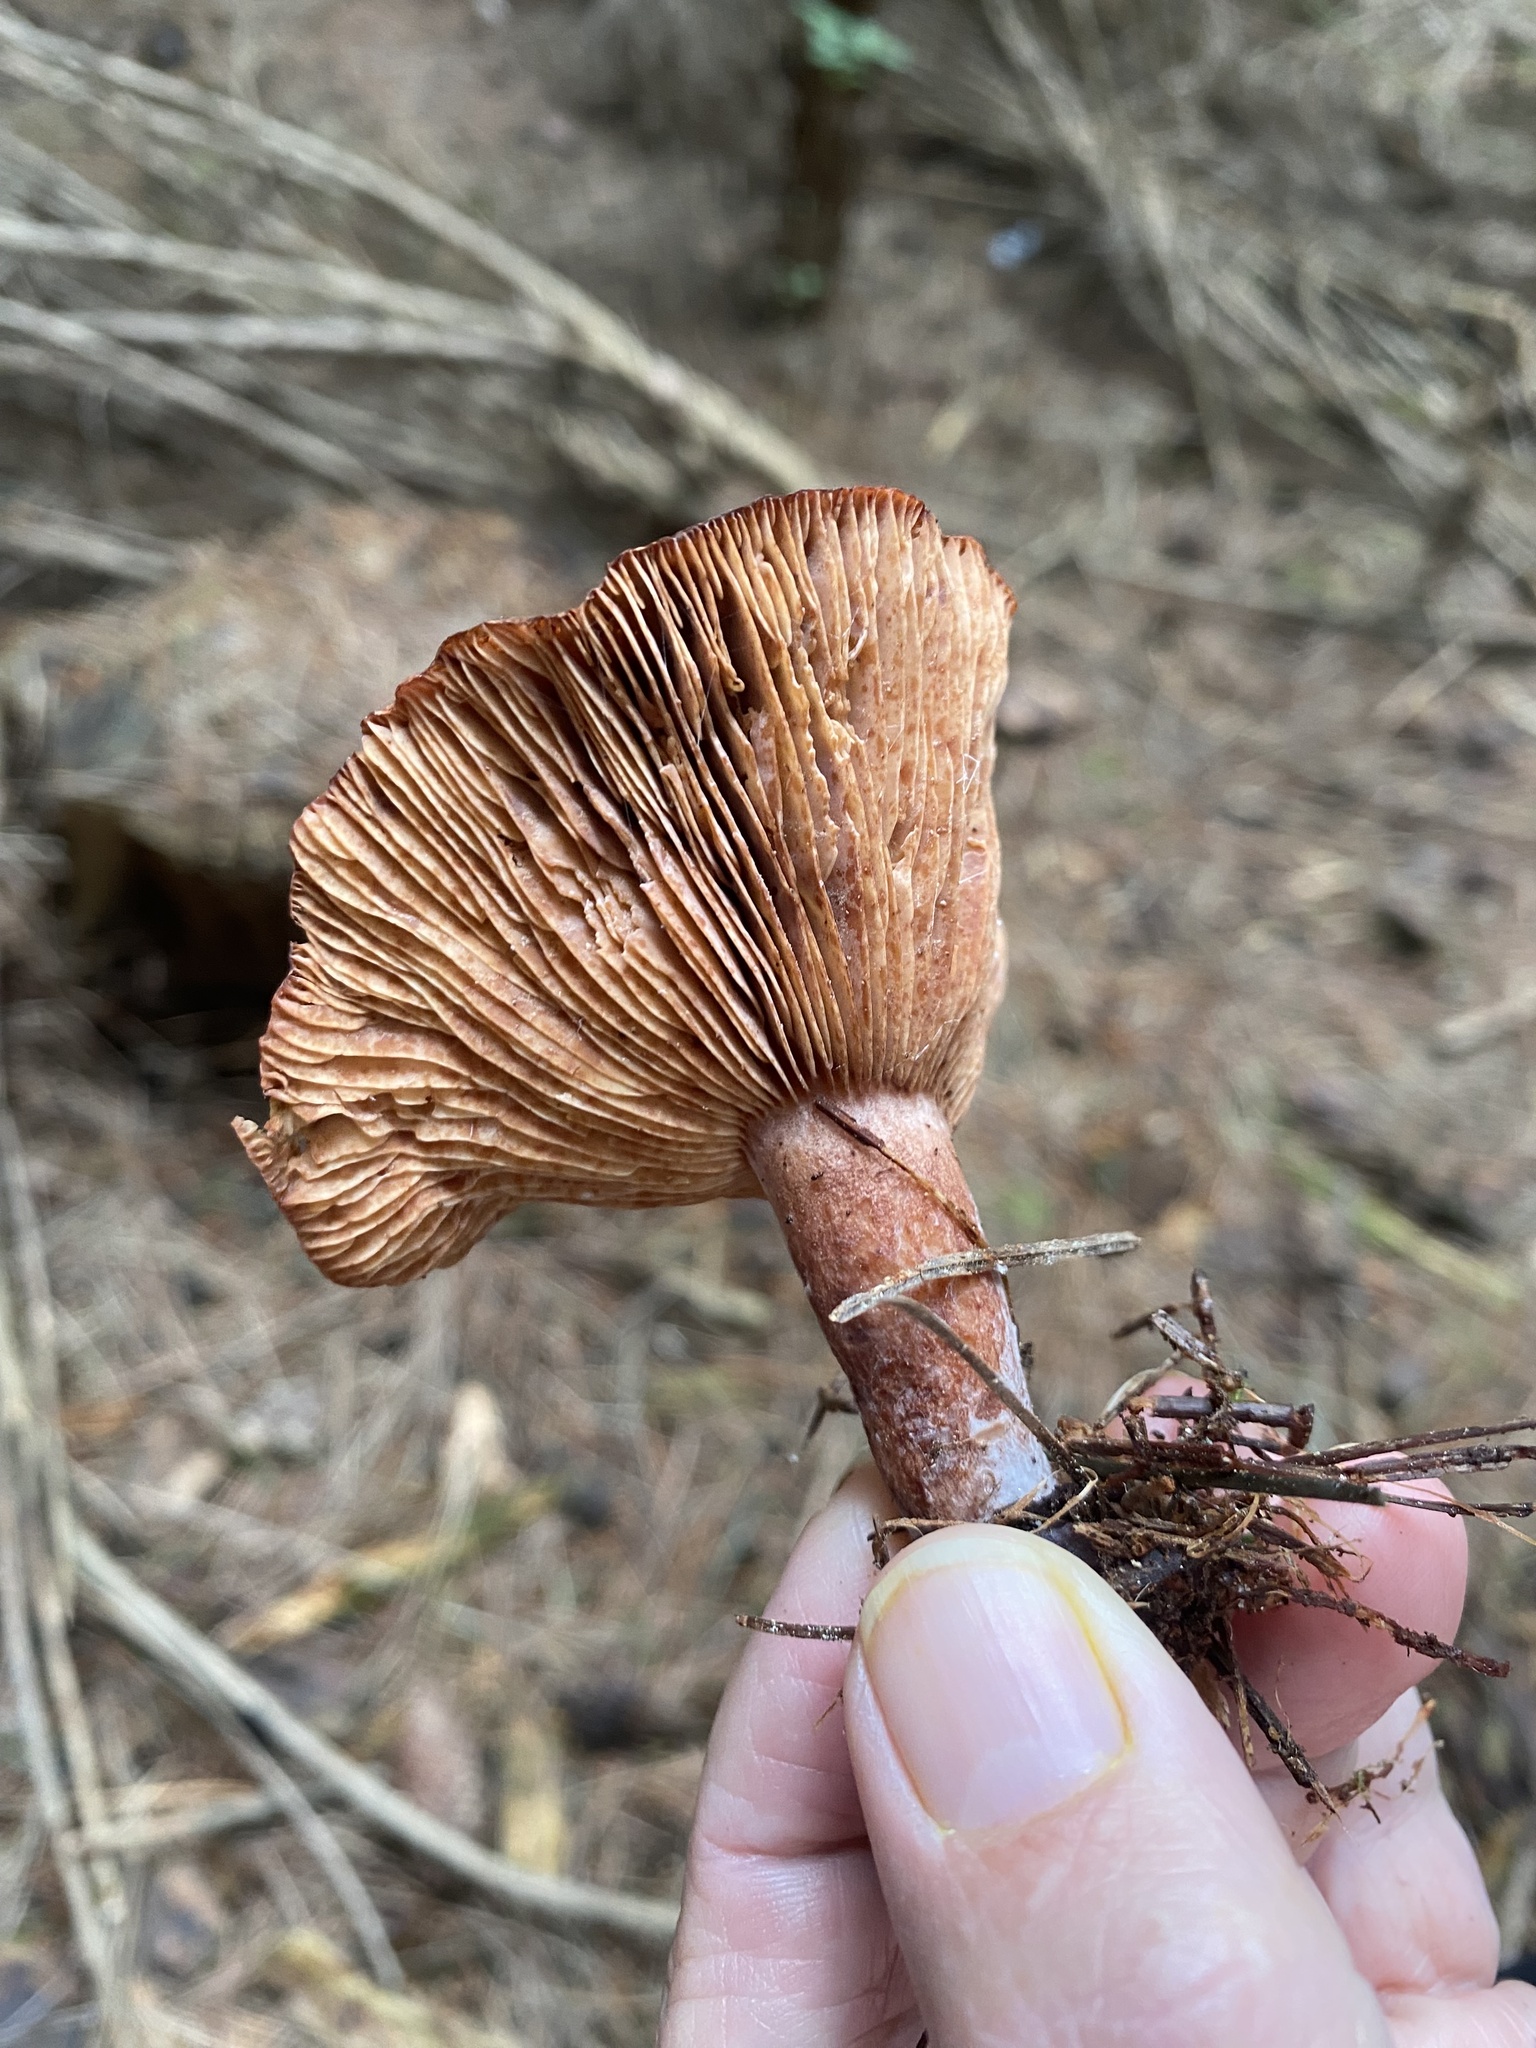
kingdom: Fungi
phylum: Basidiomycota
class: Agaricomycetes
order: Russulales
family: Russulaceae
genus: Lactarius
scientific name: Lactarius rufus
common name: Rufous milk-cap
